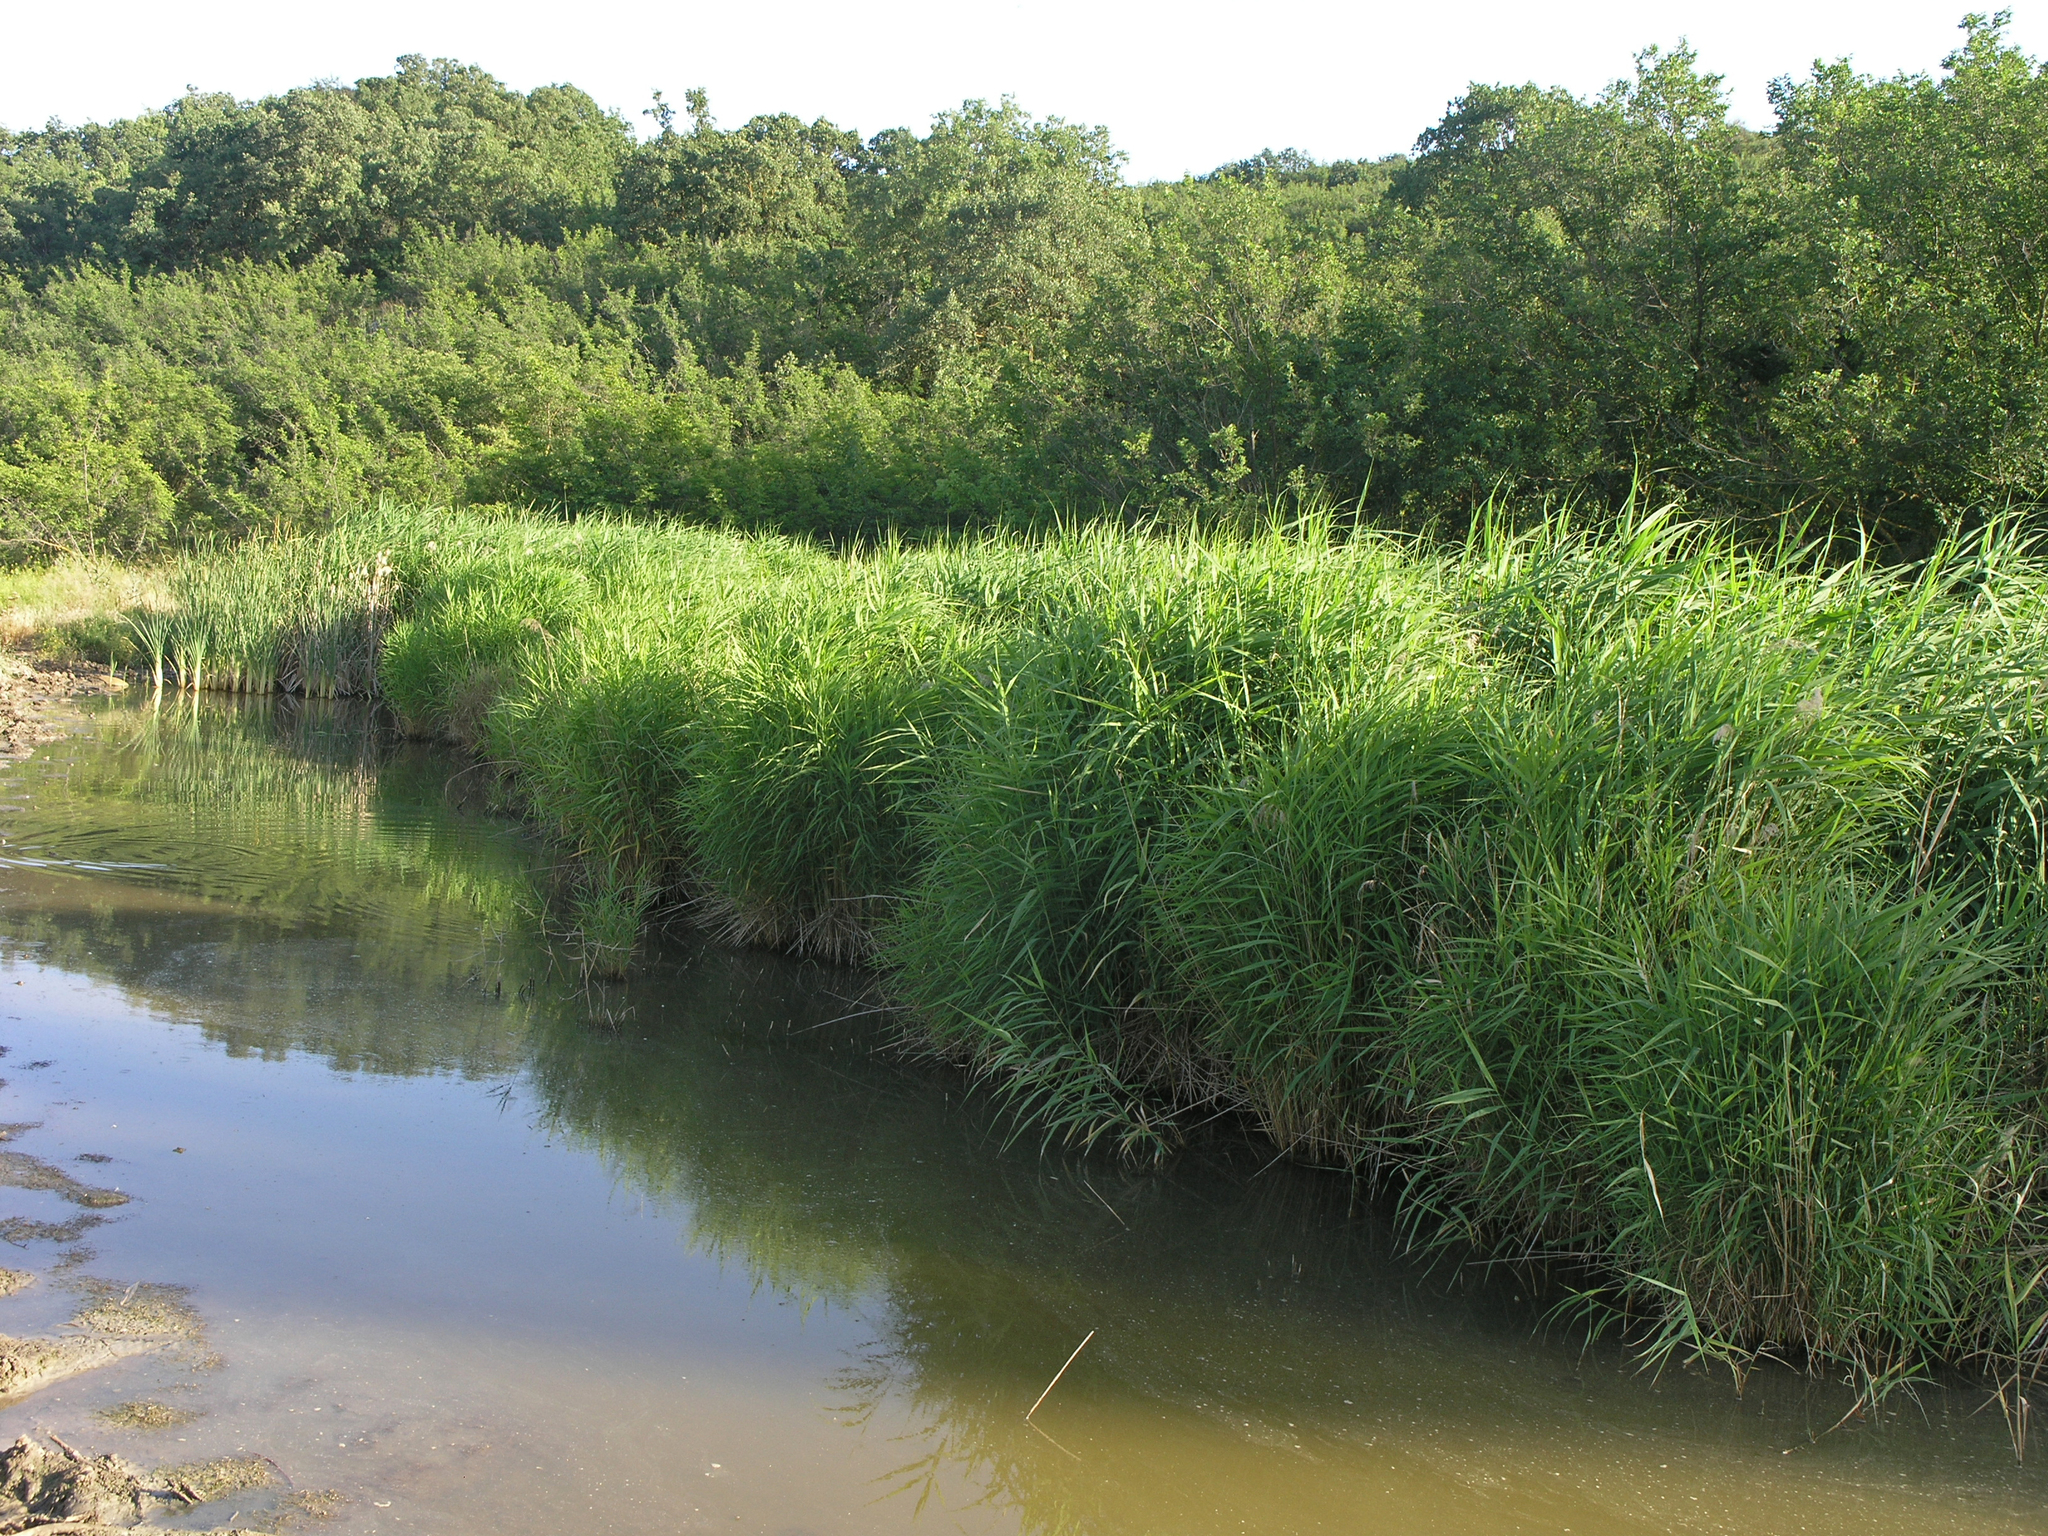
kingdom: Plantae
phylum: Tracheophyta
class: Liliopsida
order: Poales
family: Poaceae
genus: Phragmites
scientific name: Phragmites australis
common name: Common reed
